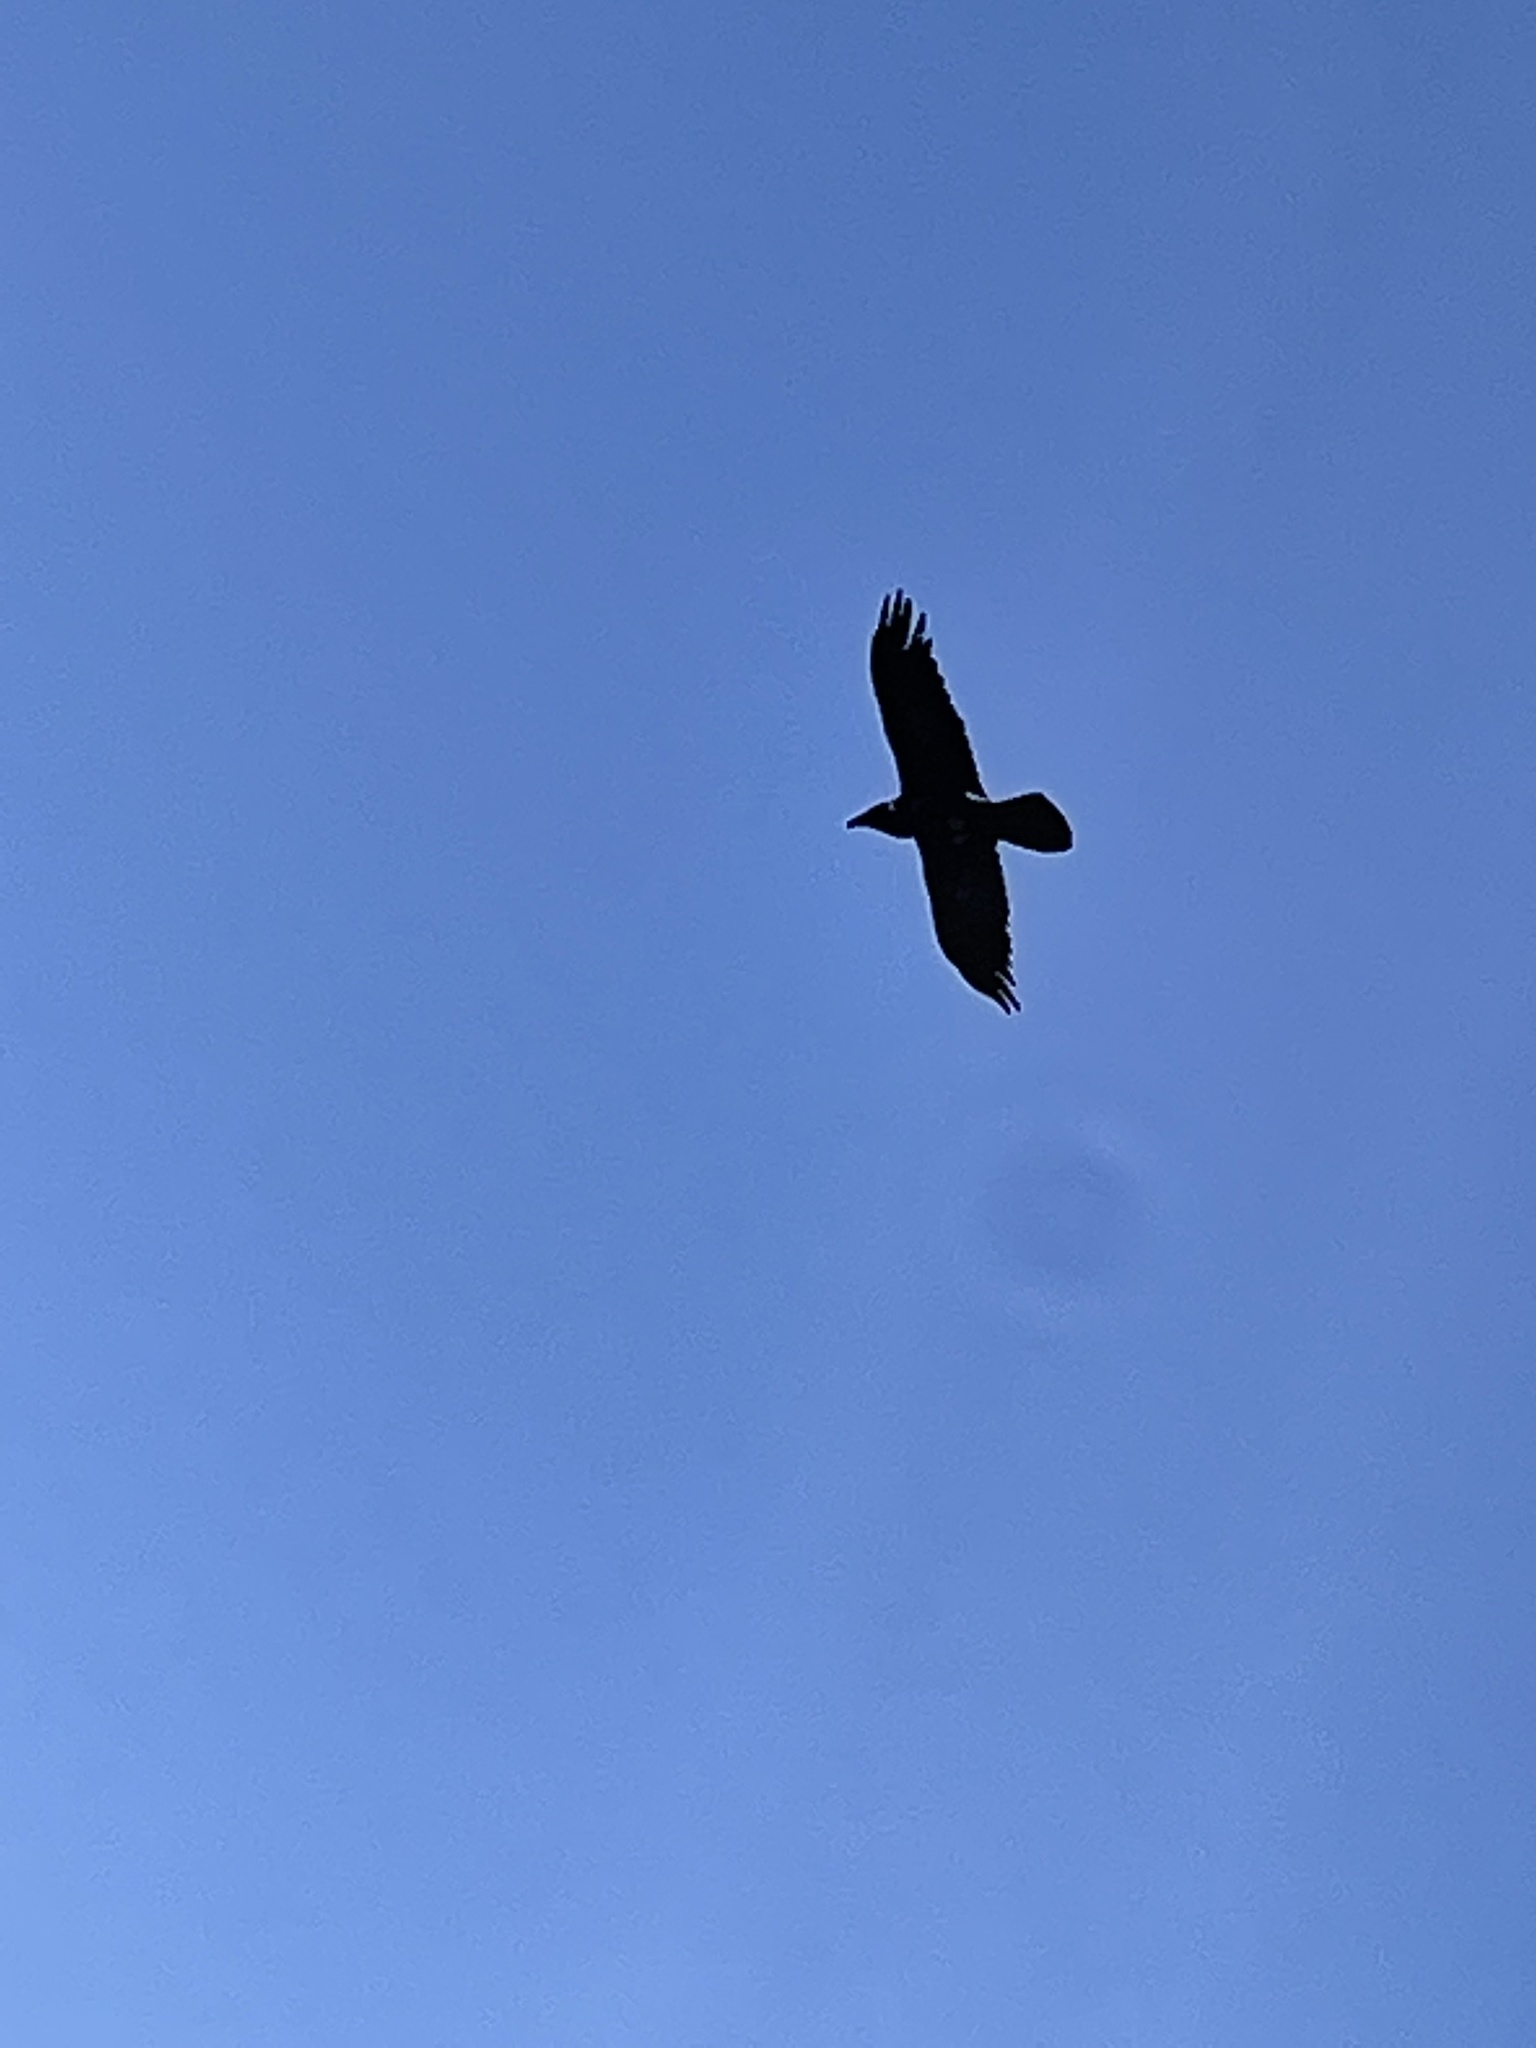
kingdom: Animalia
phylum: Chordata
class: Aves
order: Passeriformes
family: Corvidae
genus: Corvus
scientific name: Corvus corax
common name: Common raven
